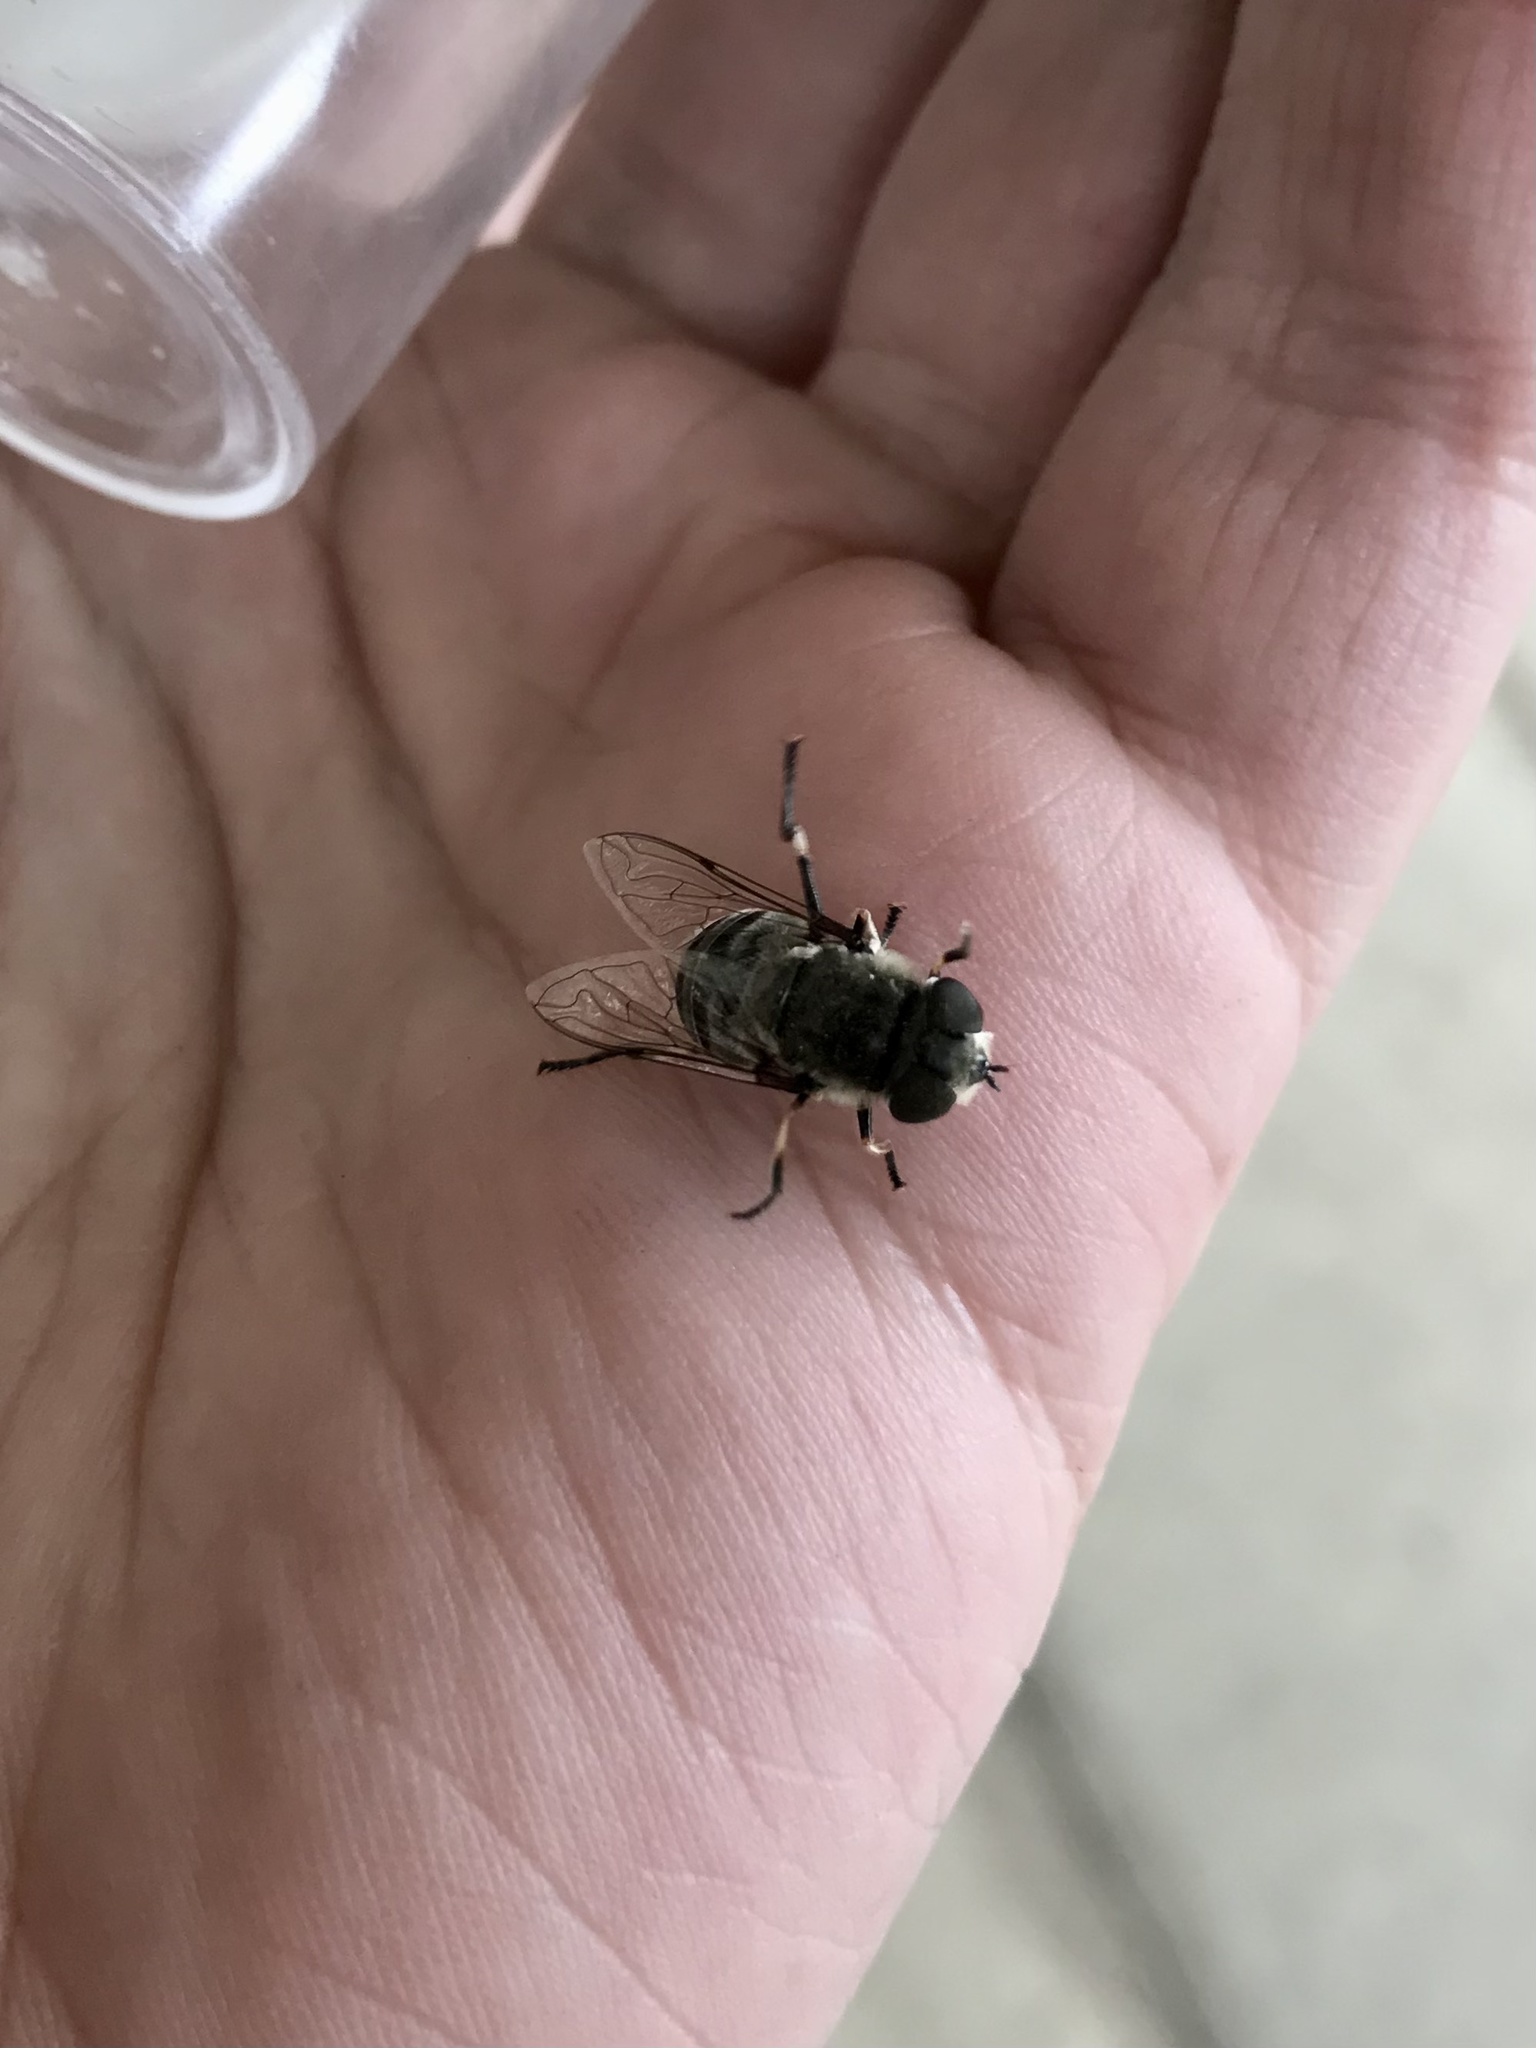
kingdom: Animalia
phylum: Arthropoda
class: Insecta
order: Diptera
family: Syrphidae
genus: Eristalis
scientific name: Eristalis dimidiata
